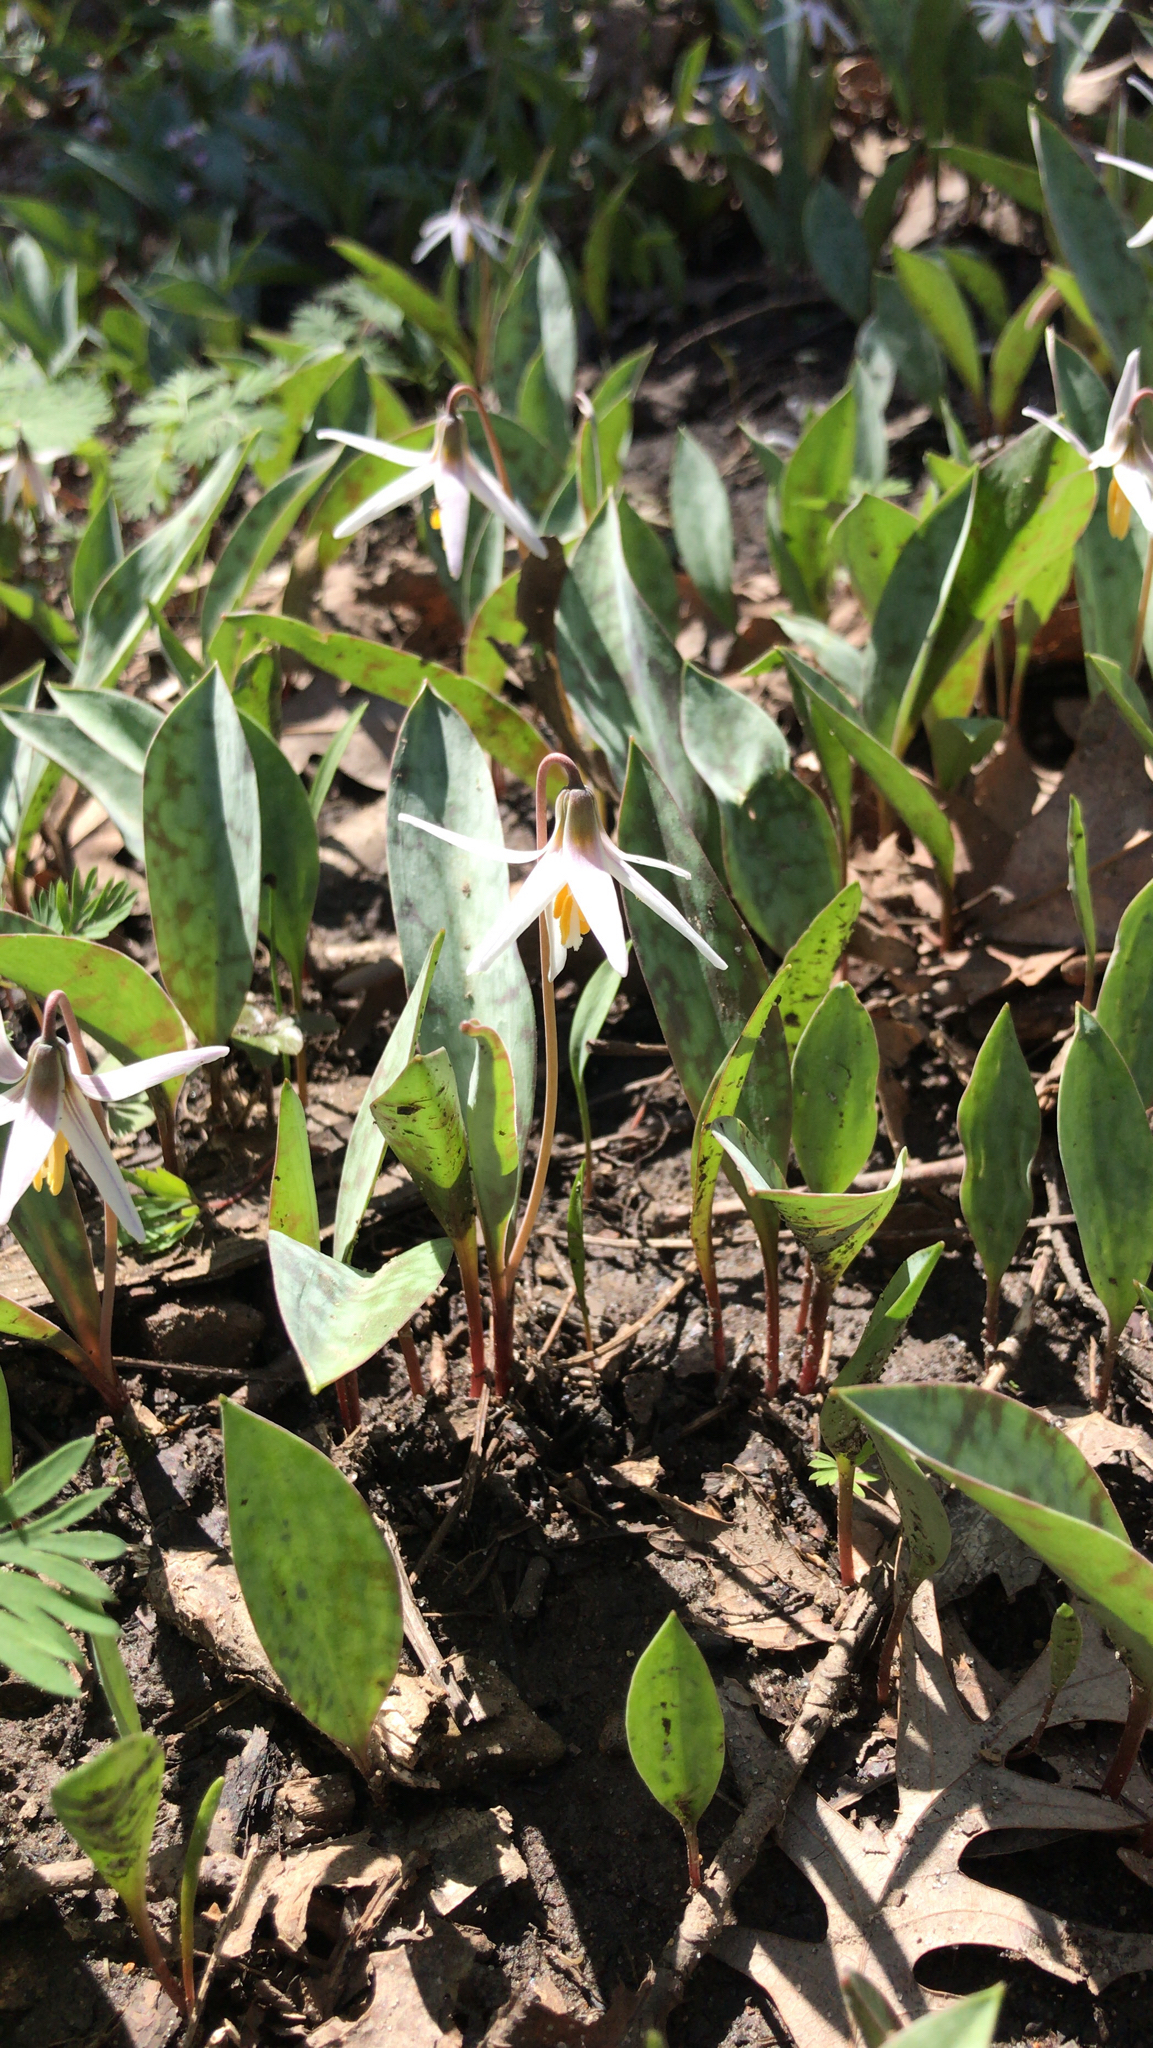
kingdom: Plantae
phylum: Tracheophyta
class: Liliopsida
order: Liliales
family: Liliaceae
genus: Erythronium
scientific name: Erythronium albidum
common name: White trout-lily
